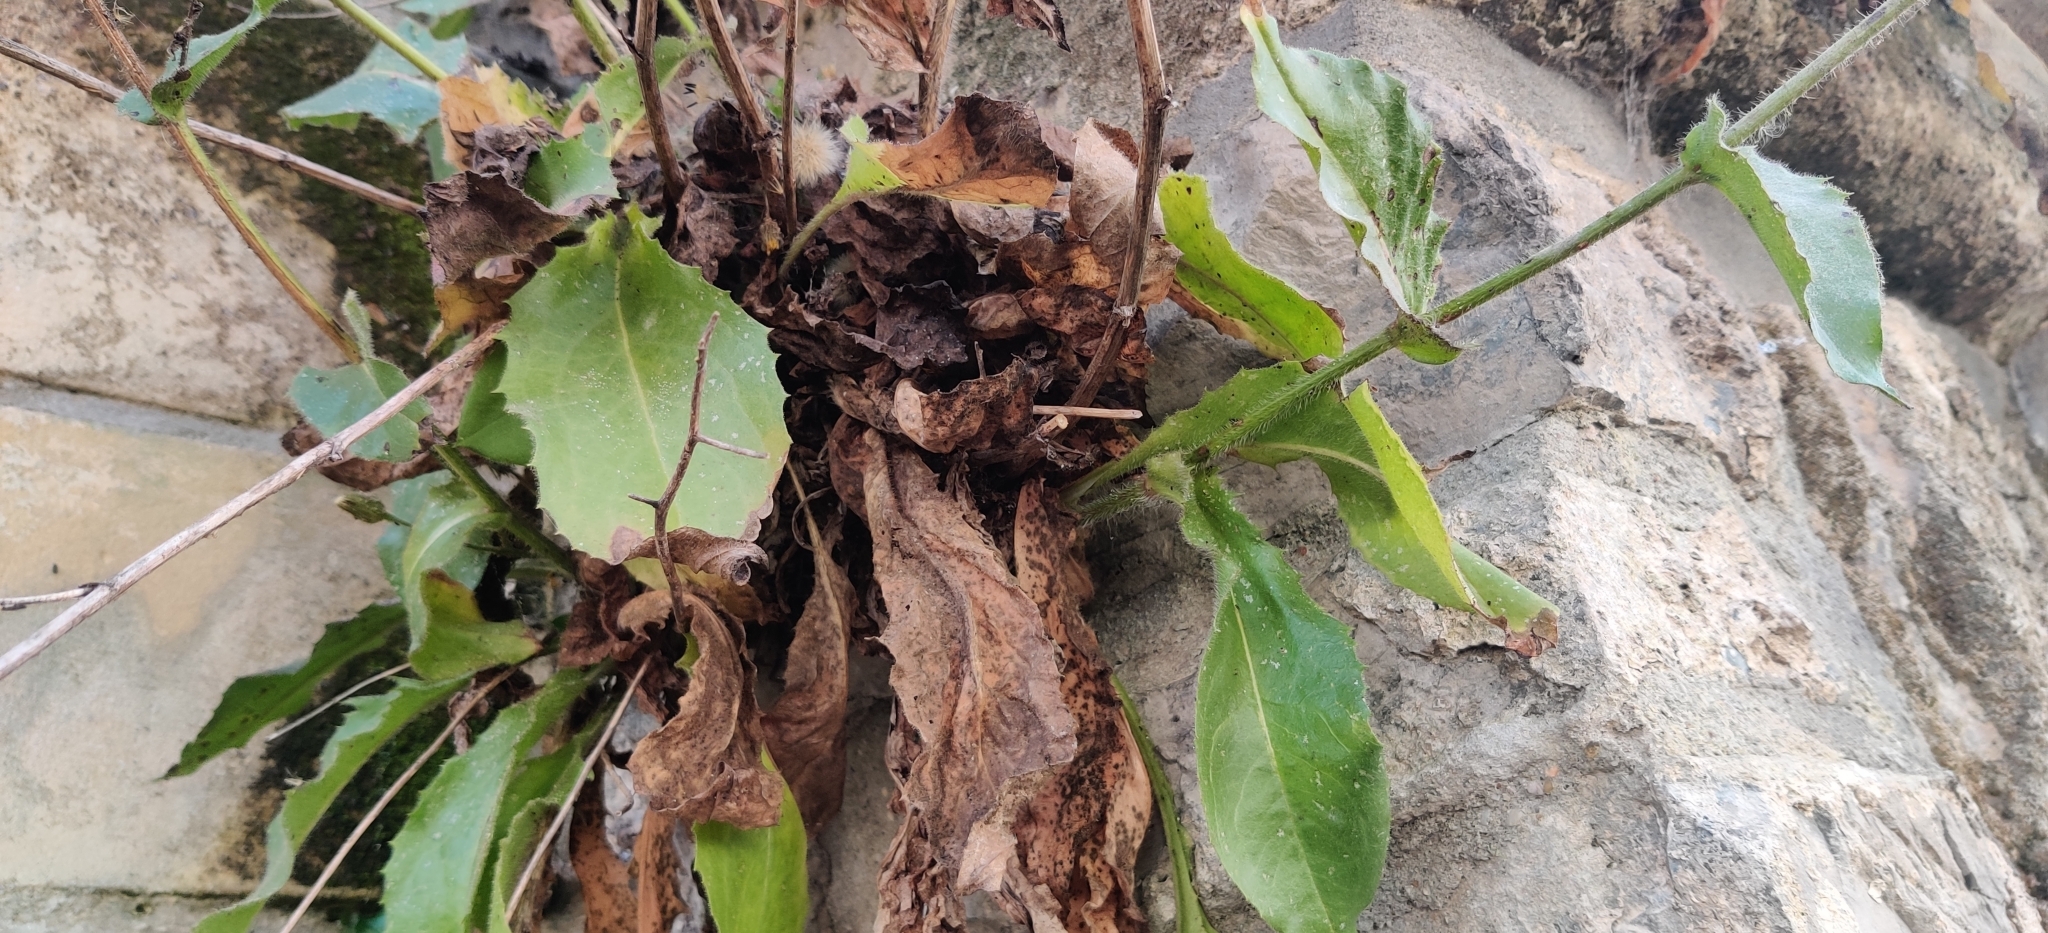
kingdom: Plantae
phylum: Tracheophyta
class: Magnoliopsida
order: Asterales
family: Asteraceae
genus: Hieracium
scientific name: Hieracium amplexicaule
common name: Sticky hawkweed
